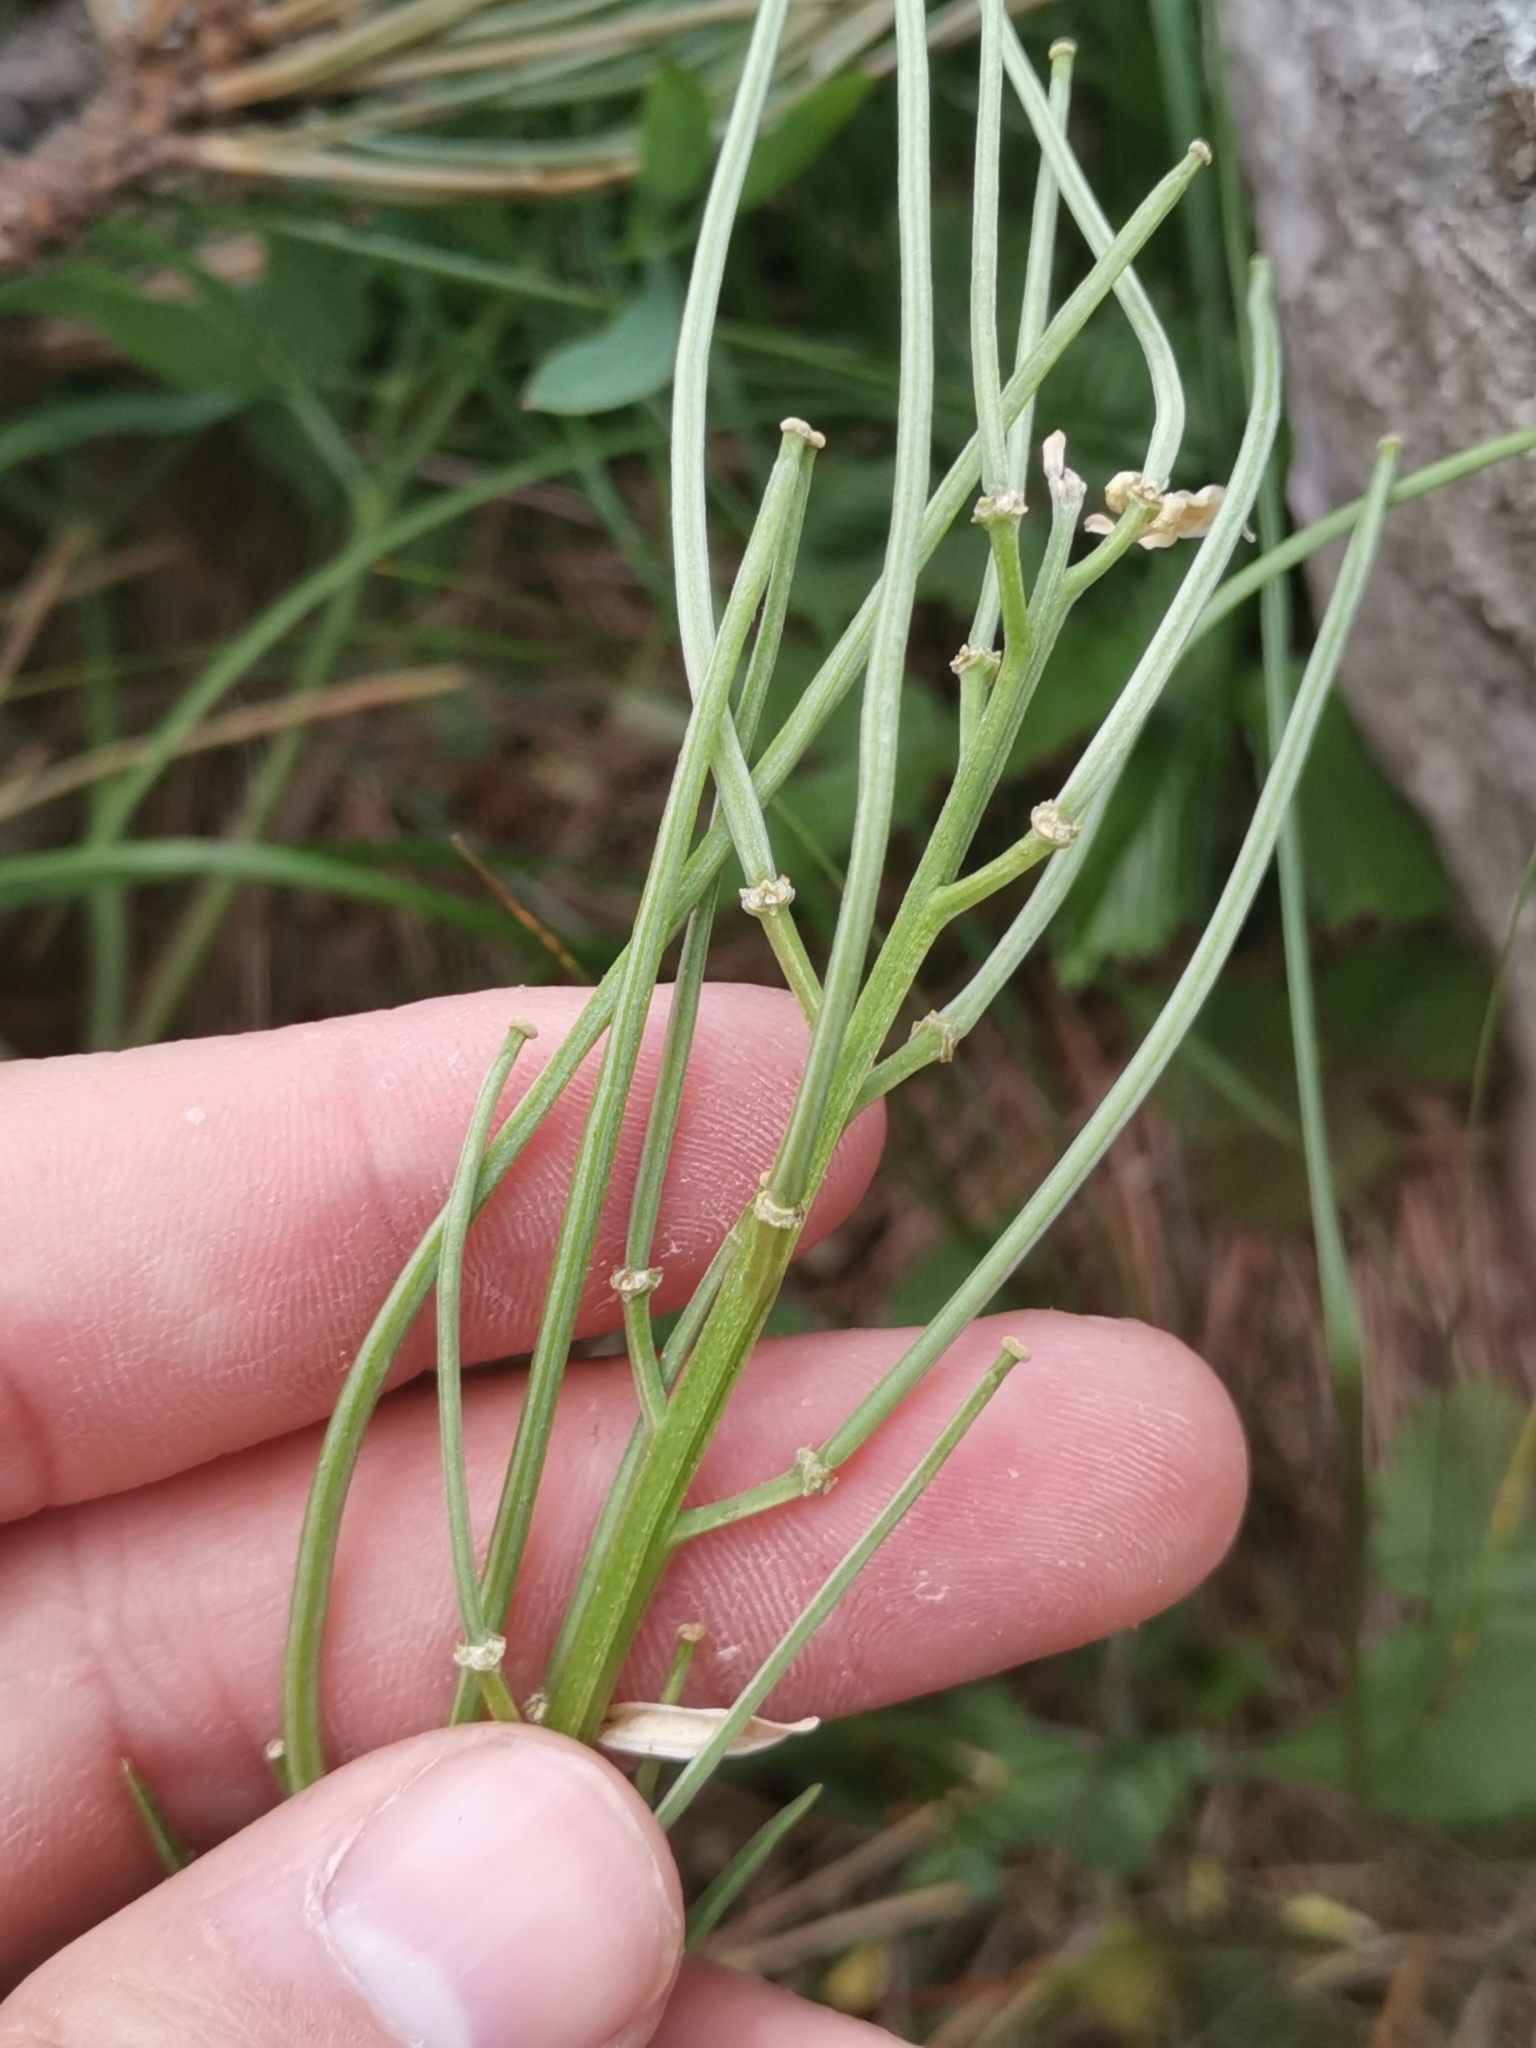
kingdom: Plantae
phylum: Tracheophyta
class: Magnoliopsida
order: Brassicales
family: Brassicaceae
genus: Erysimum
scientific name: Erysimum sylvestre
